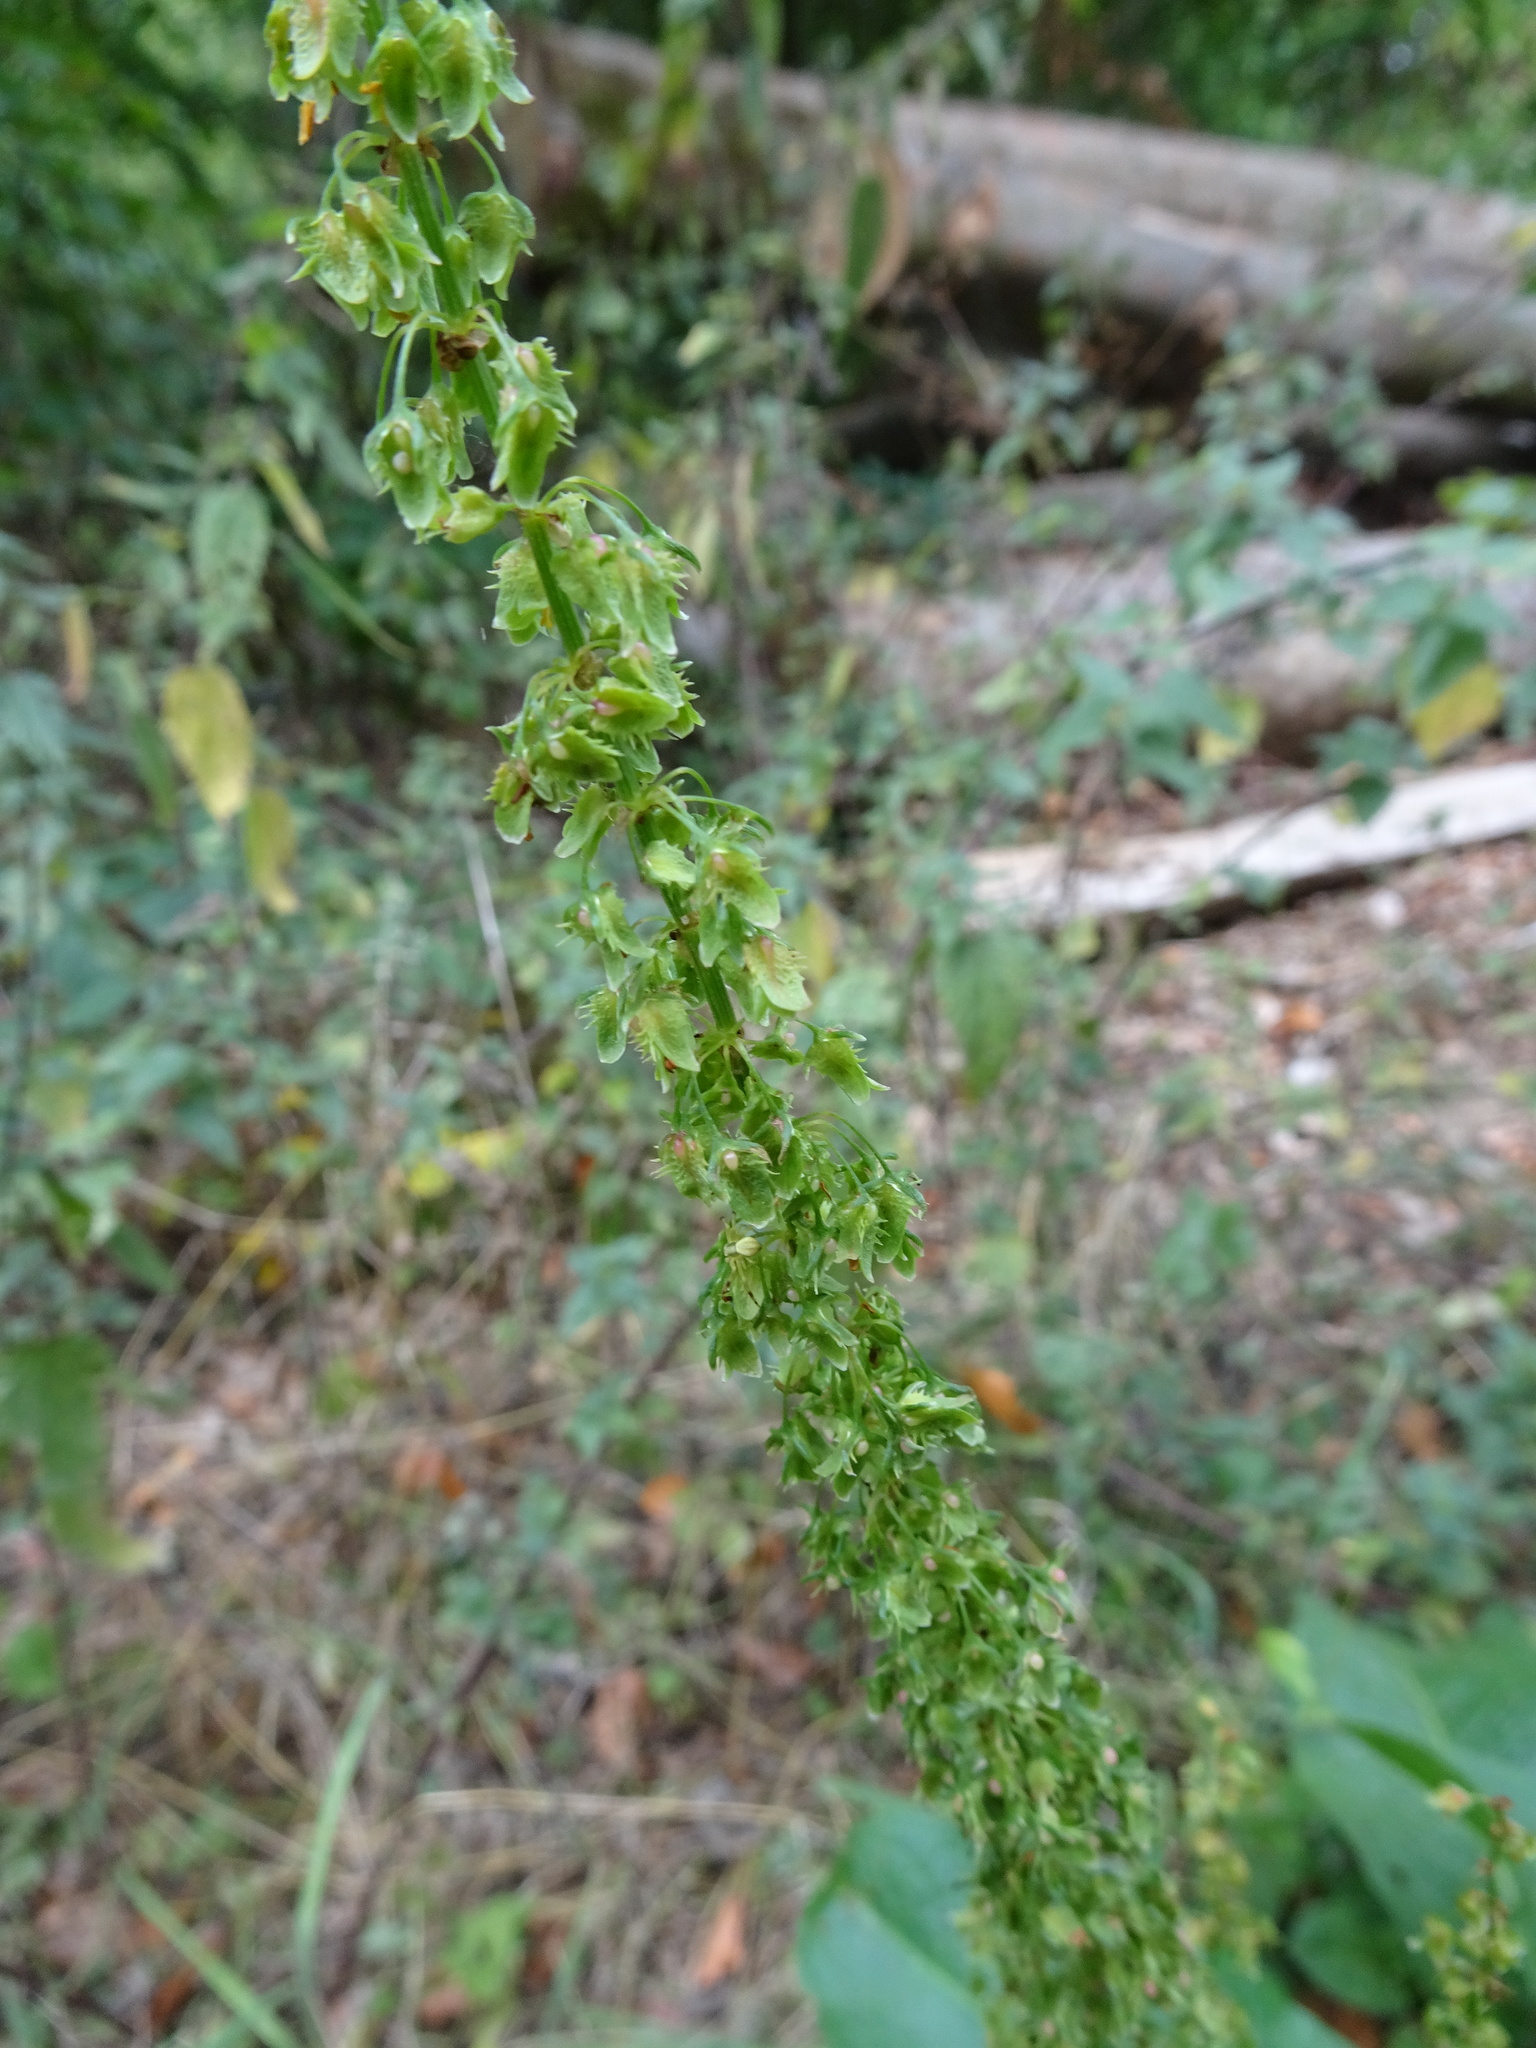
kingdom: Plantae
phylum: Tracheophyta
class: Magnoliopsida
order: Caryophyllales
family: Polygonaceae
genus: Rumex
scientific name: Rumex obtusifolius
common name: Bitter dock
